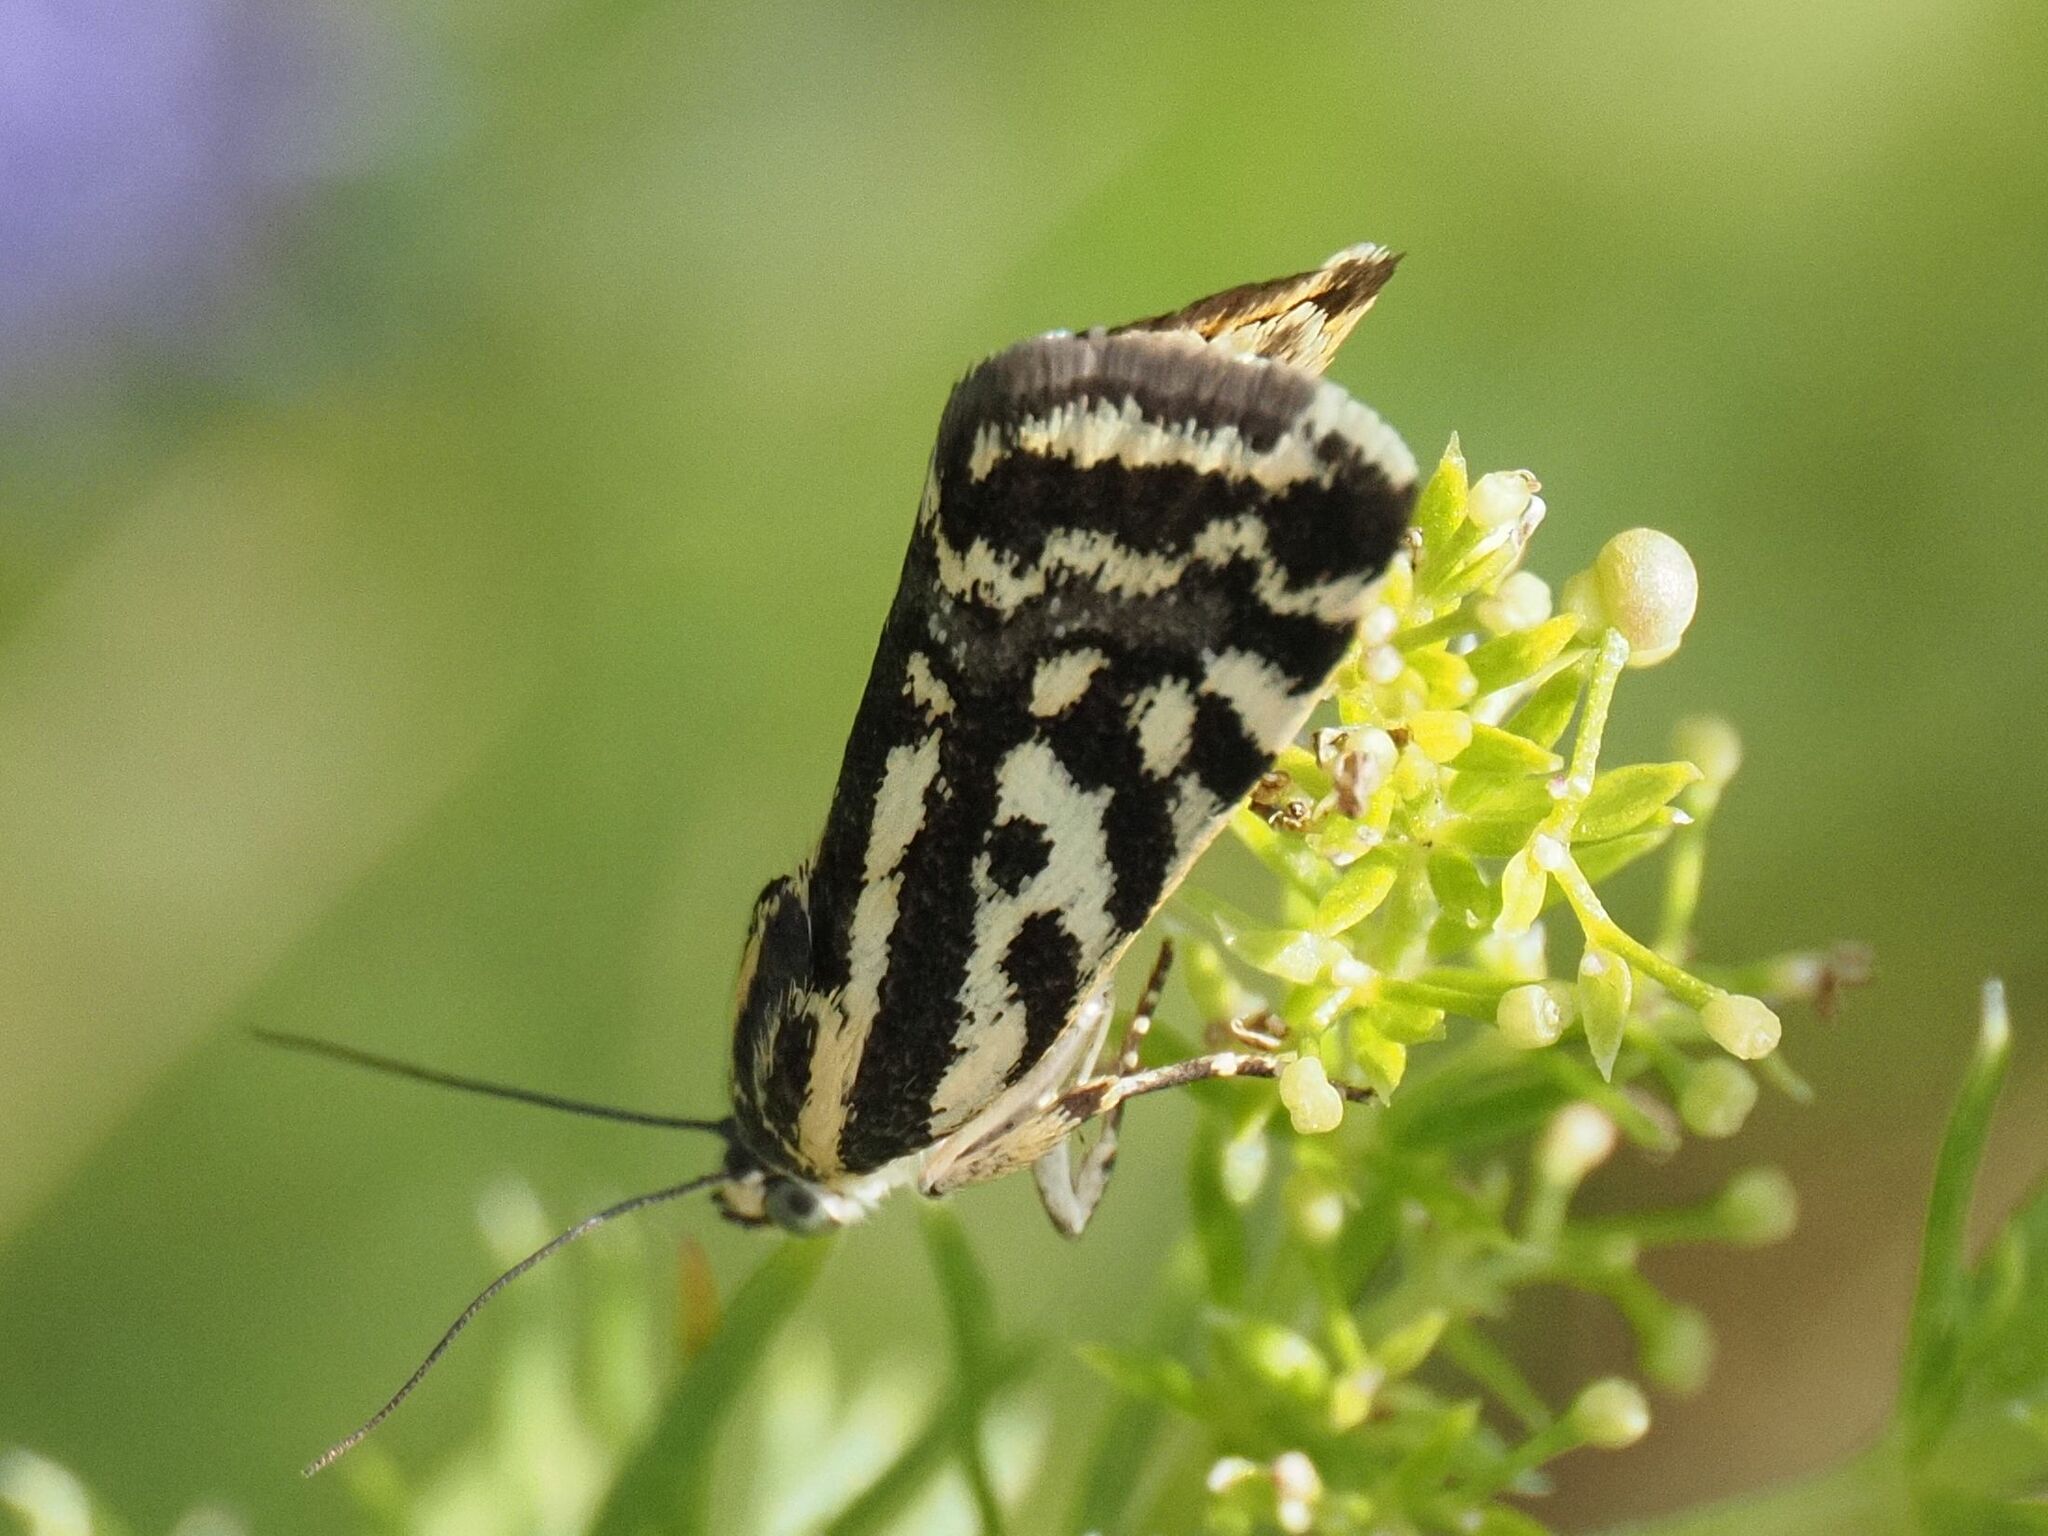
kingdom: Animalia
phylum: Arthropoda
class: Insecta
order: Lepidoptera
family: Noctuidae
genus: Acontia
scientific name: Acontia trabealis
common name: Spotted sulphur
